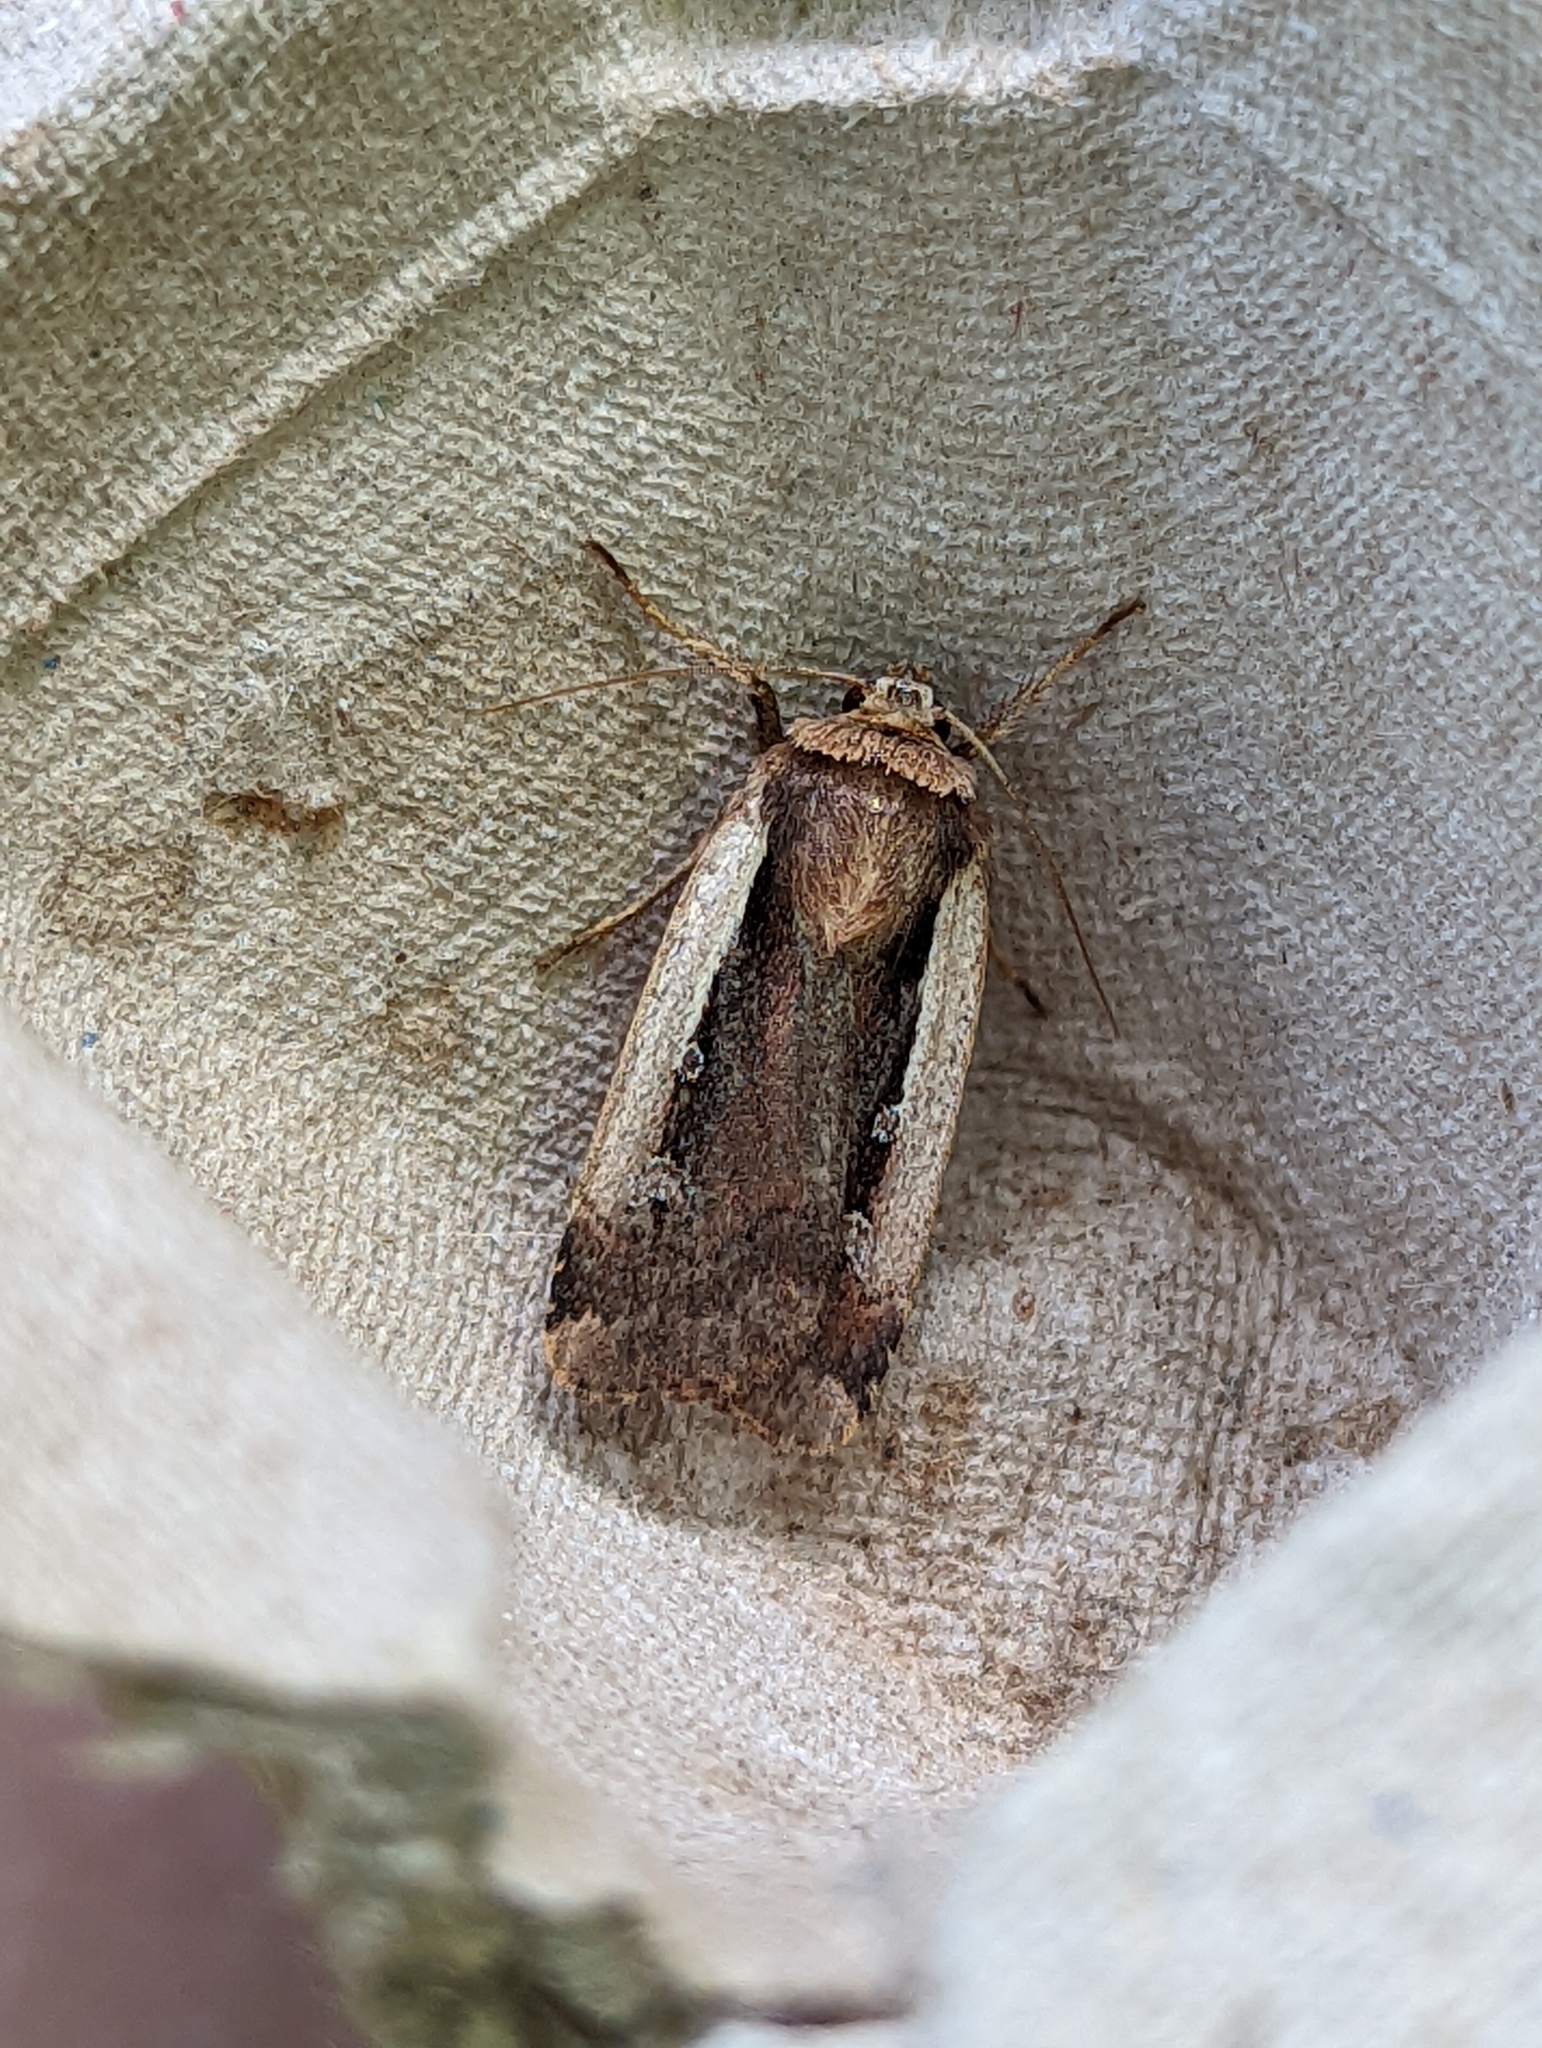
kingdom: Animalia
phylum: Arthropoda
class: Insecta
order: Lepidoptera
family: Noctuidae
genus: Ochropleura
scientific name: Ochropleura plecta
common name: Flame shoulder
